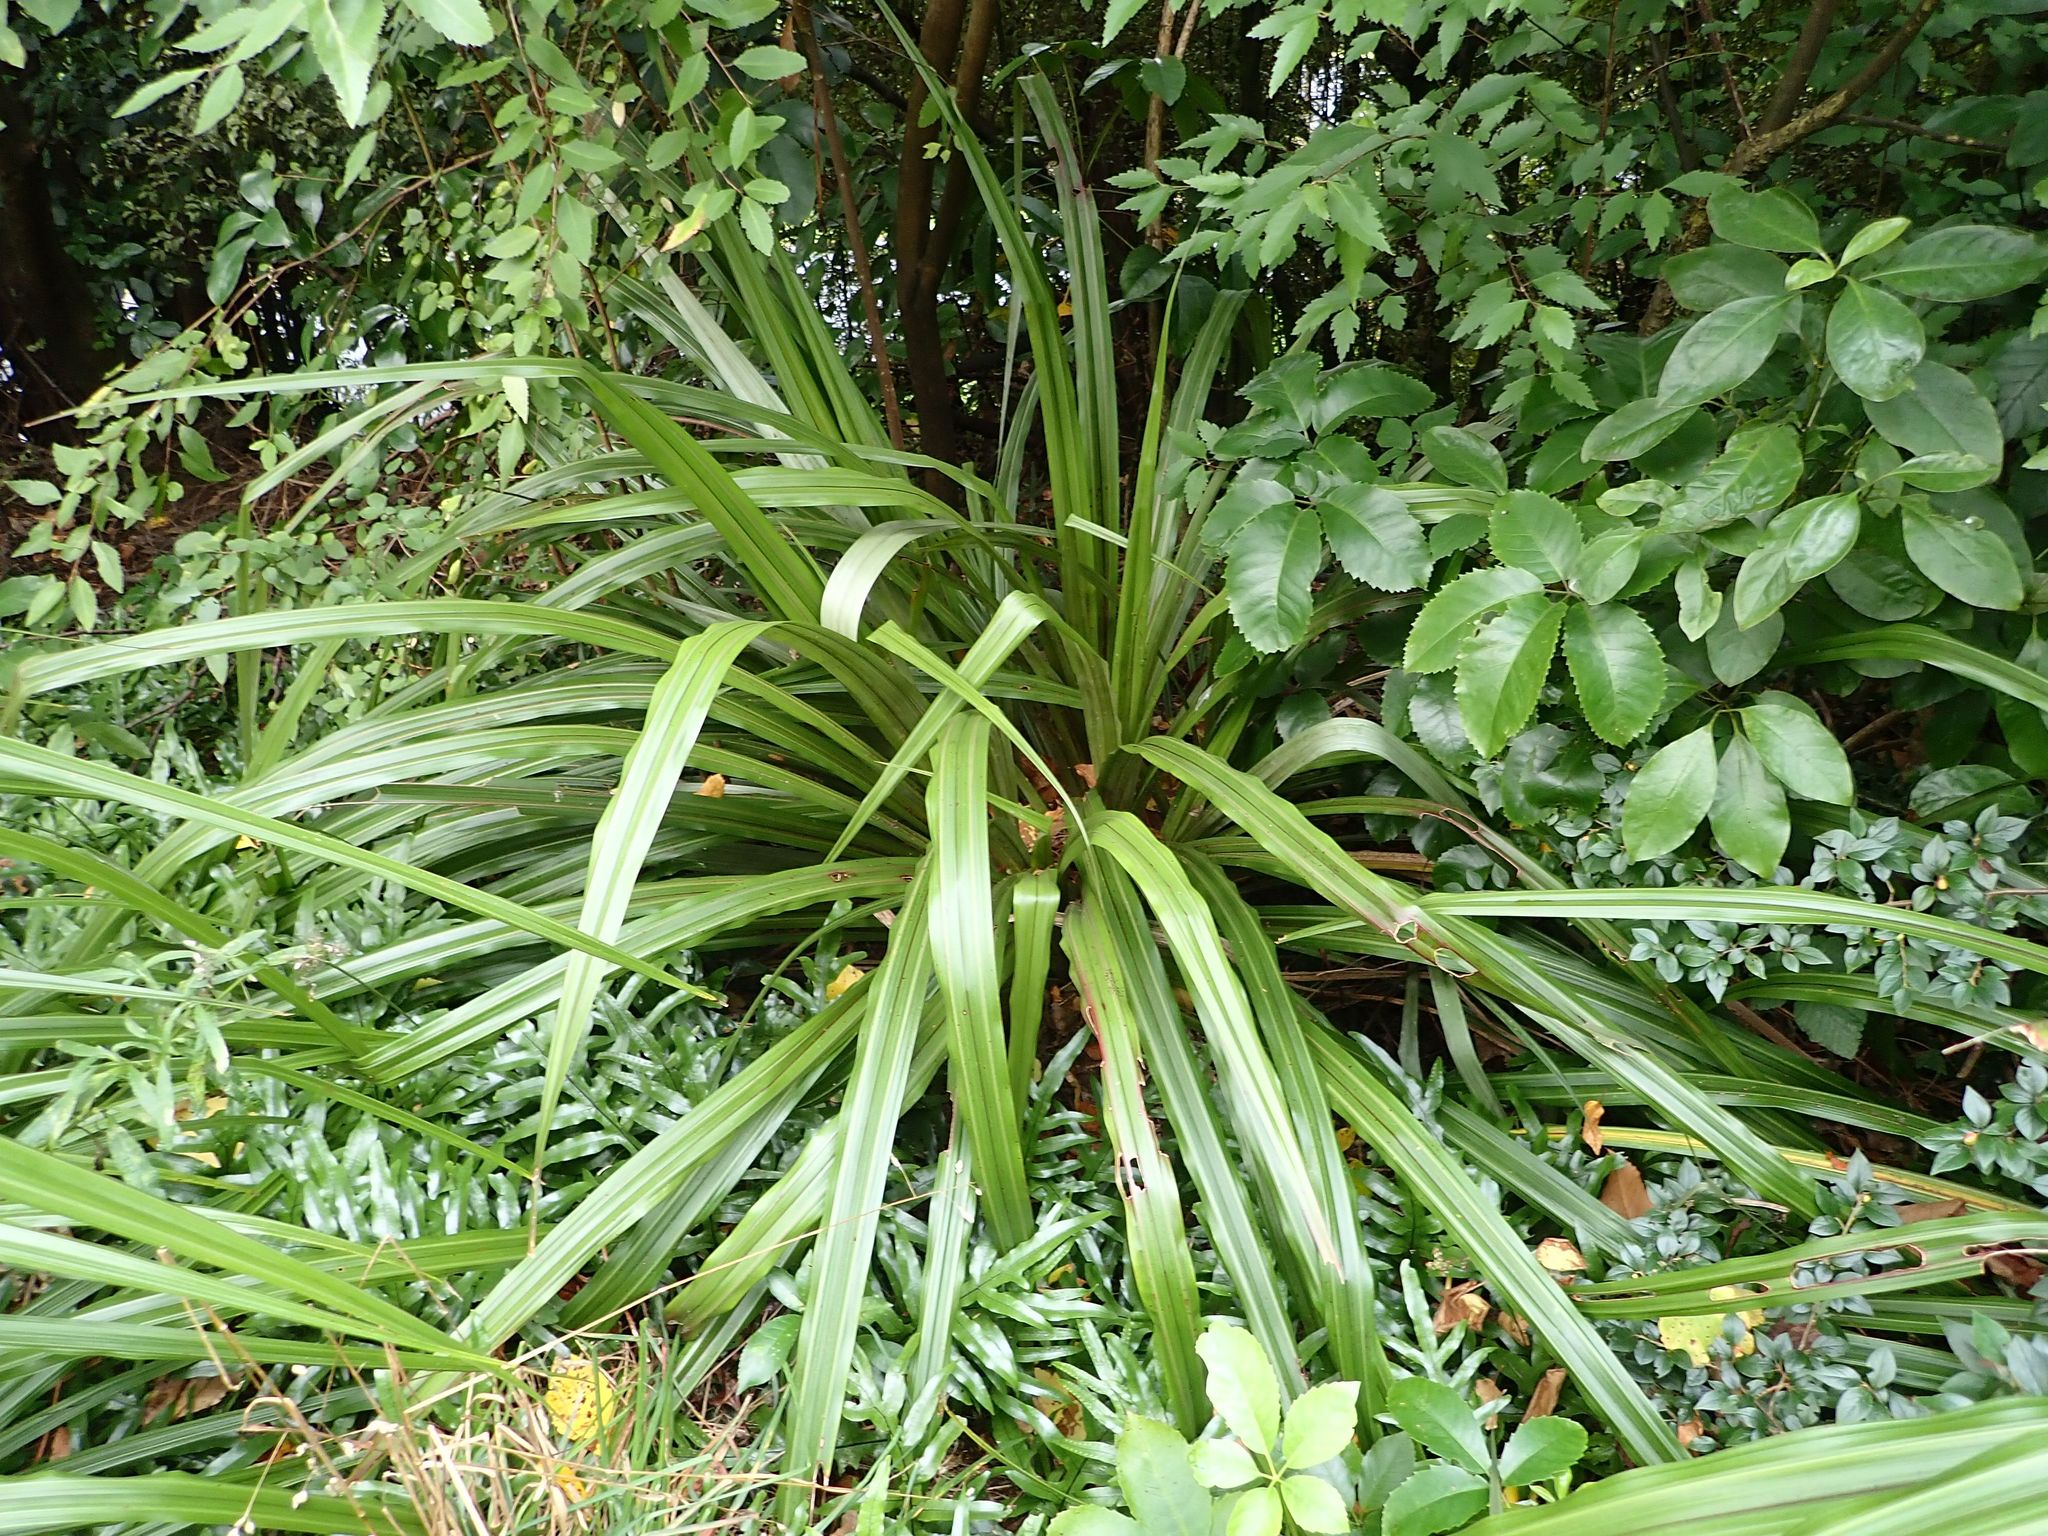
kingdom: Plantae
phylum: Tracheophyta
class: Liliopsida
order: Asparagales
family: Asteliaceae
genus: Astelia
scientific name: Astelia fragrans
